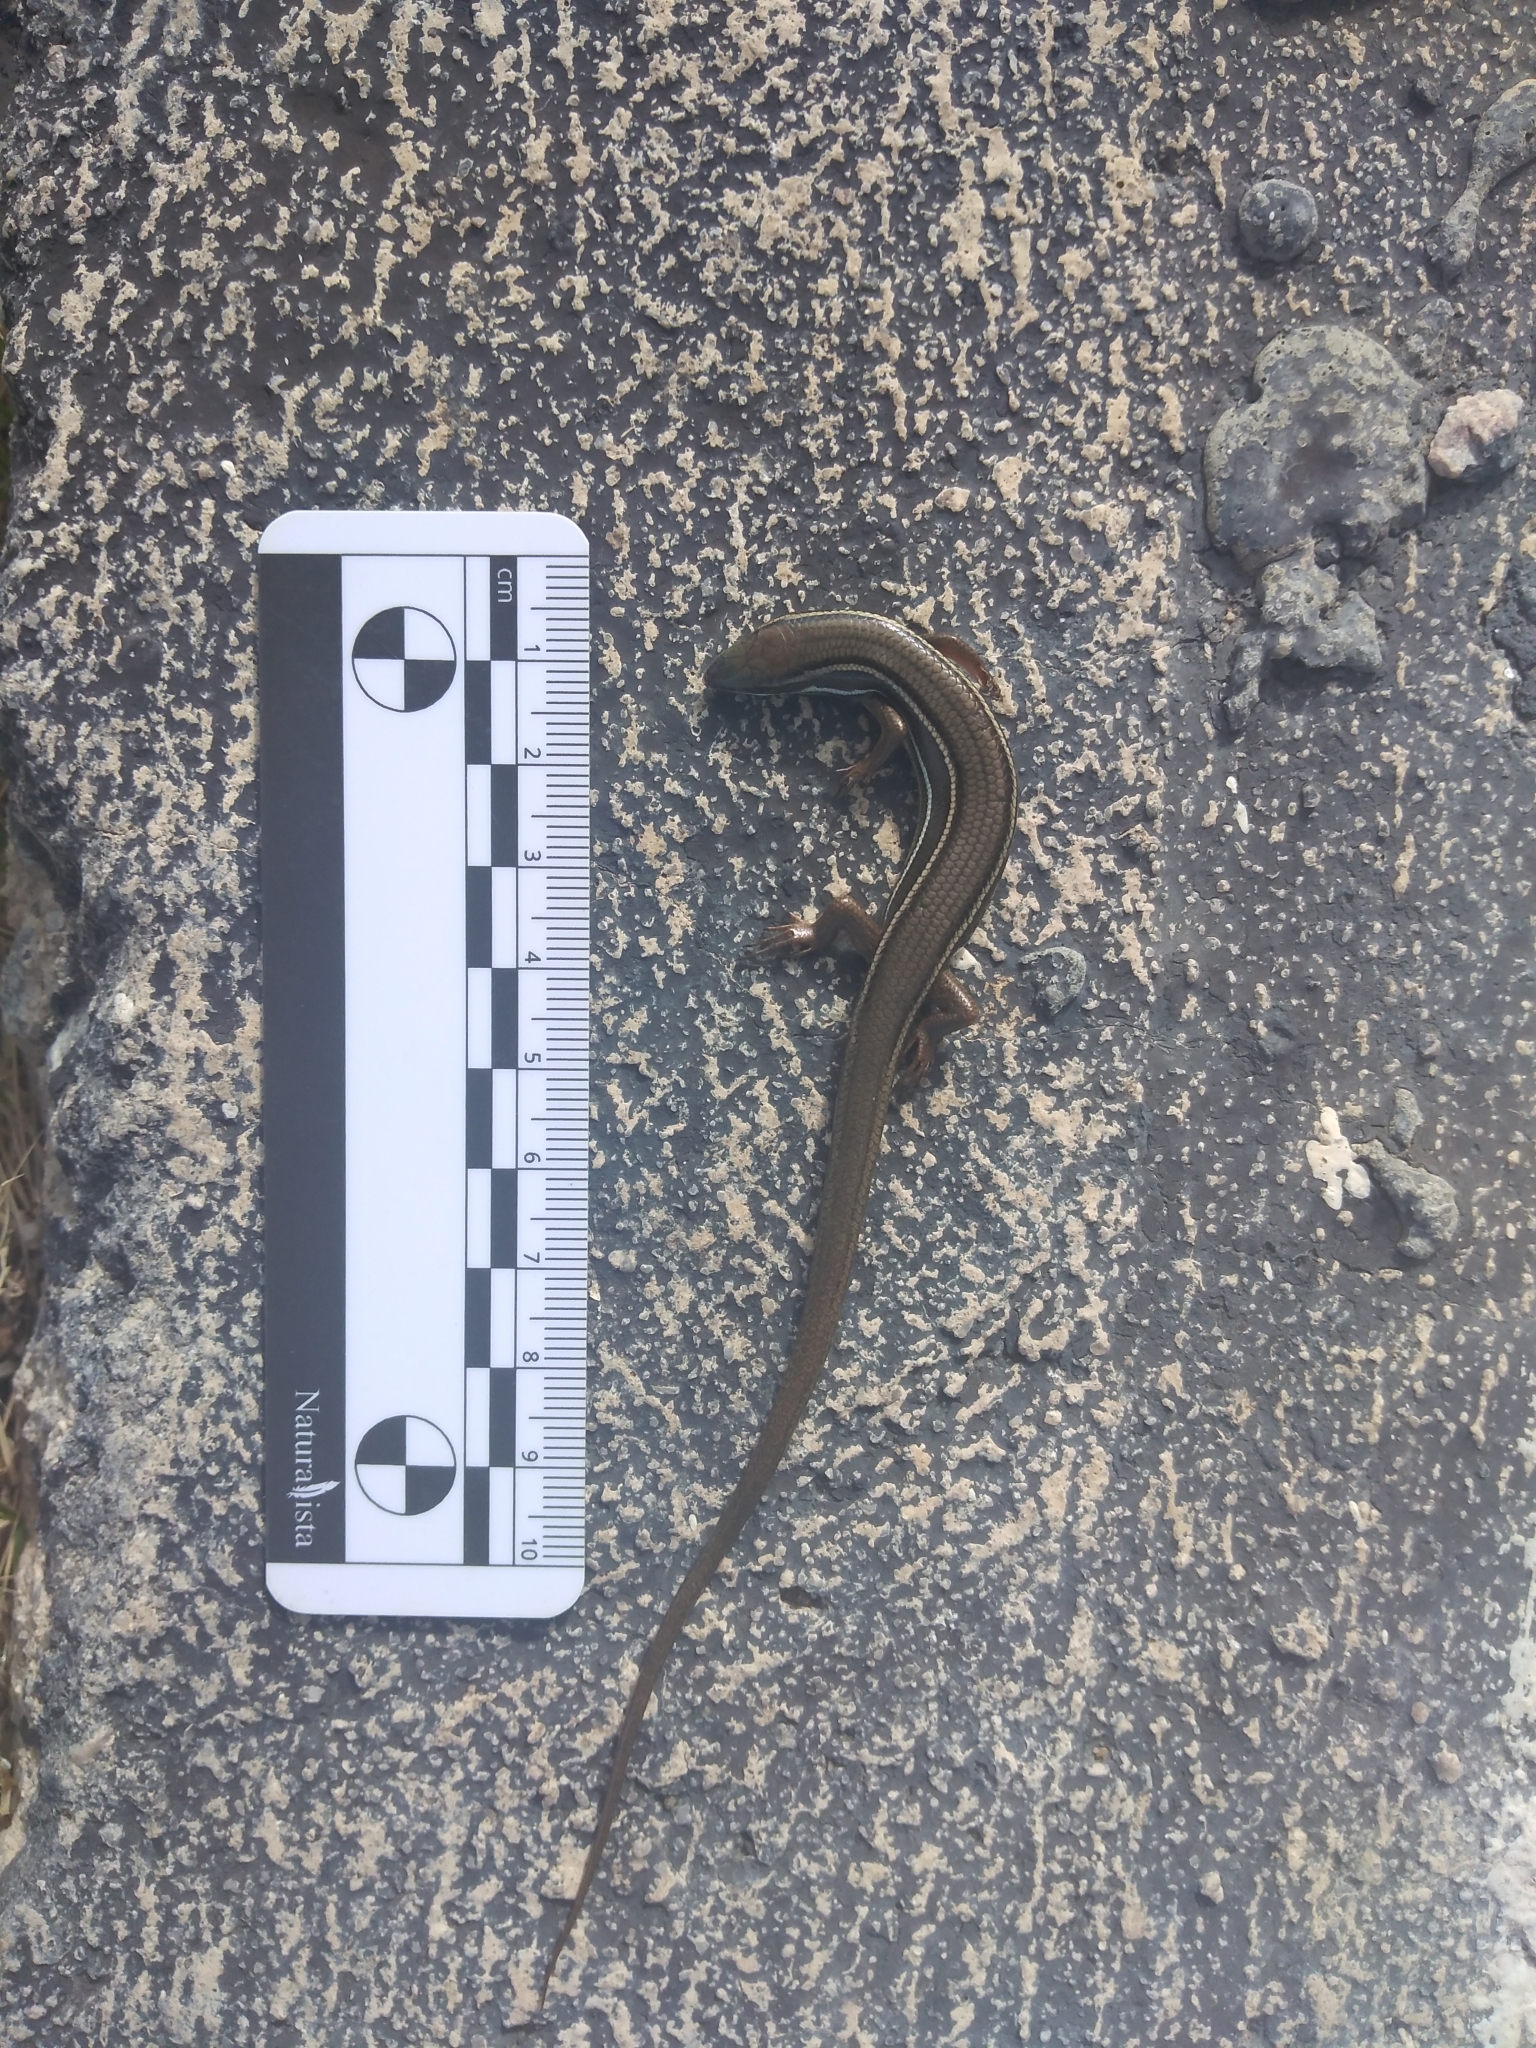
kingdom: Animalia
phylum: Chordata
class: Squamata
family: Scincidae
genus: Aspronema
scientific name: Aspronema dorsivittatum
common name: Paraguay mabuya
